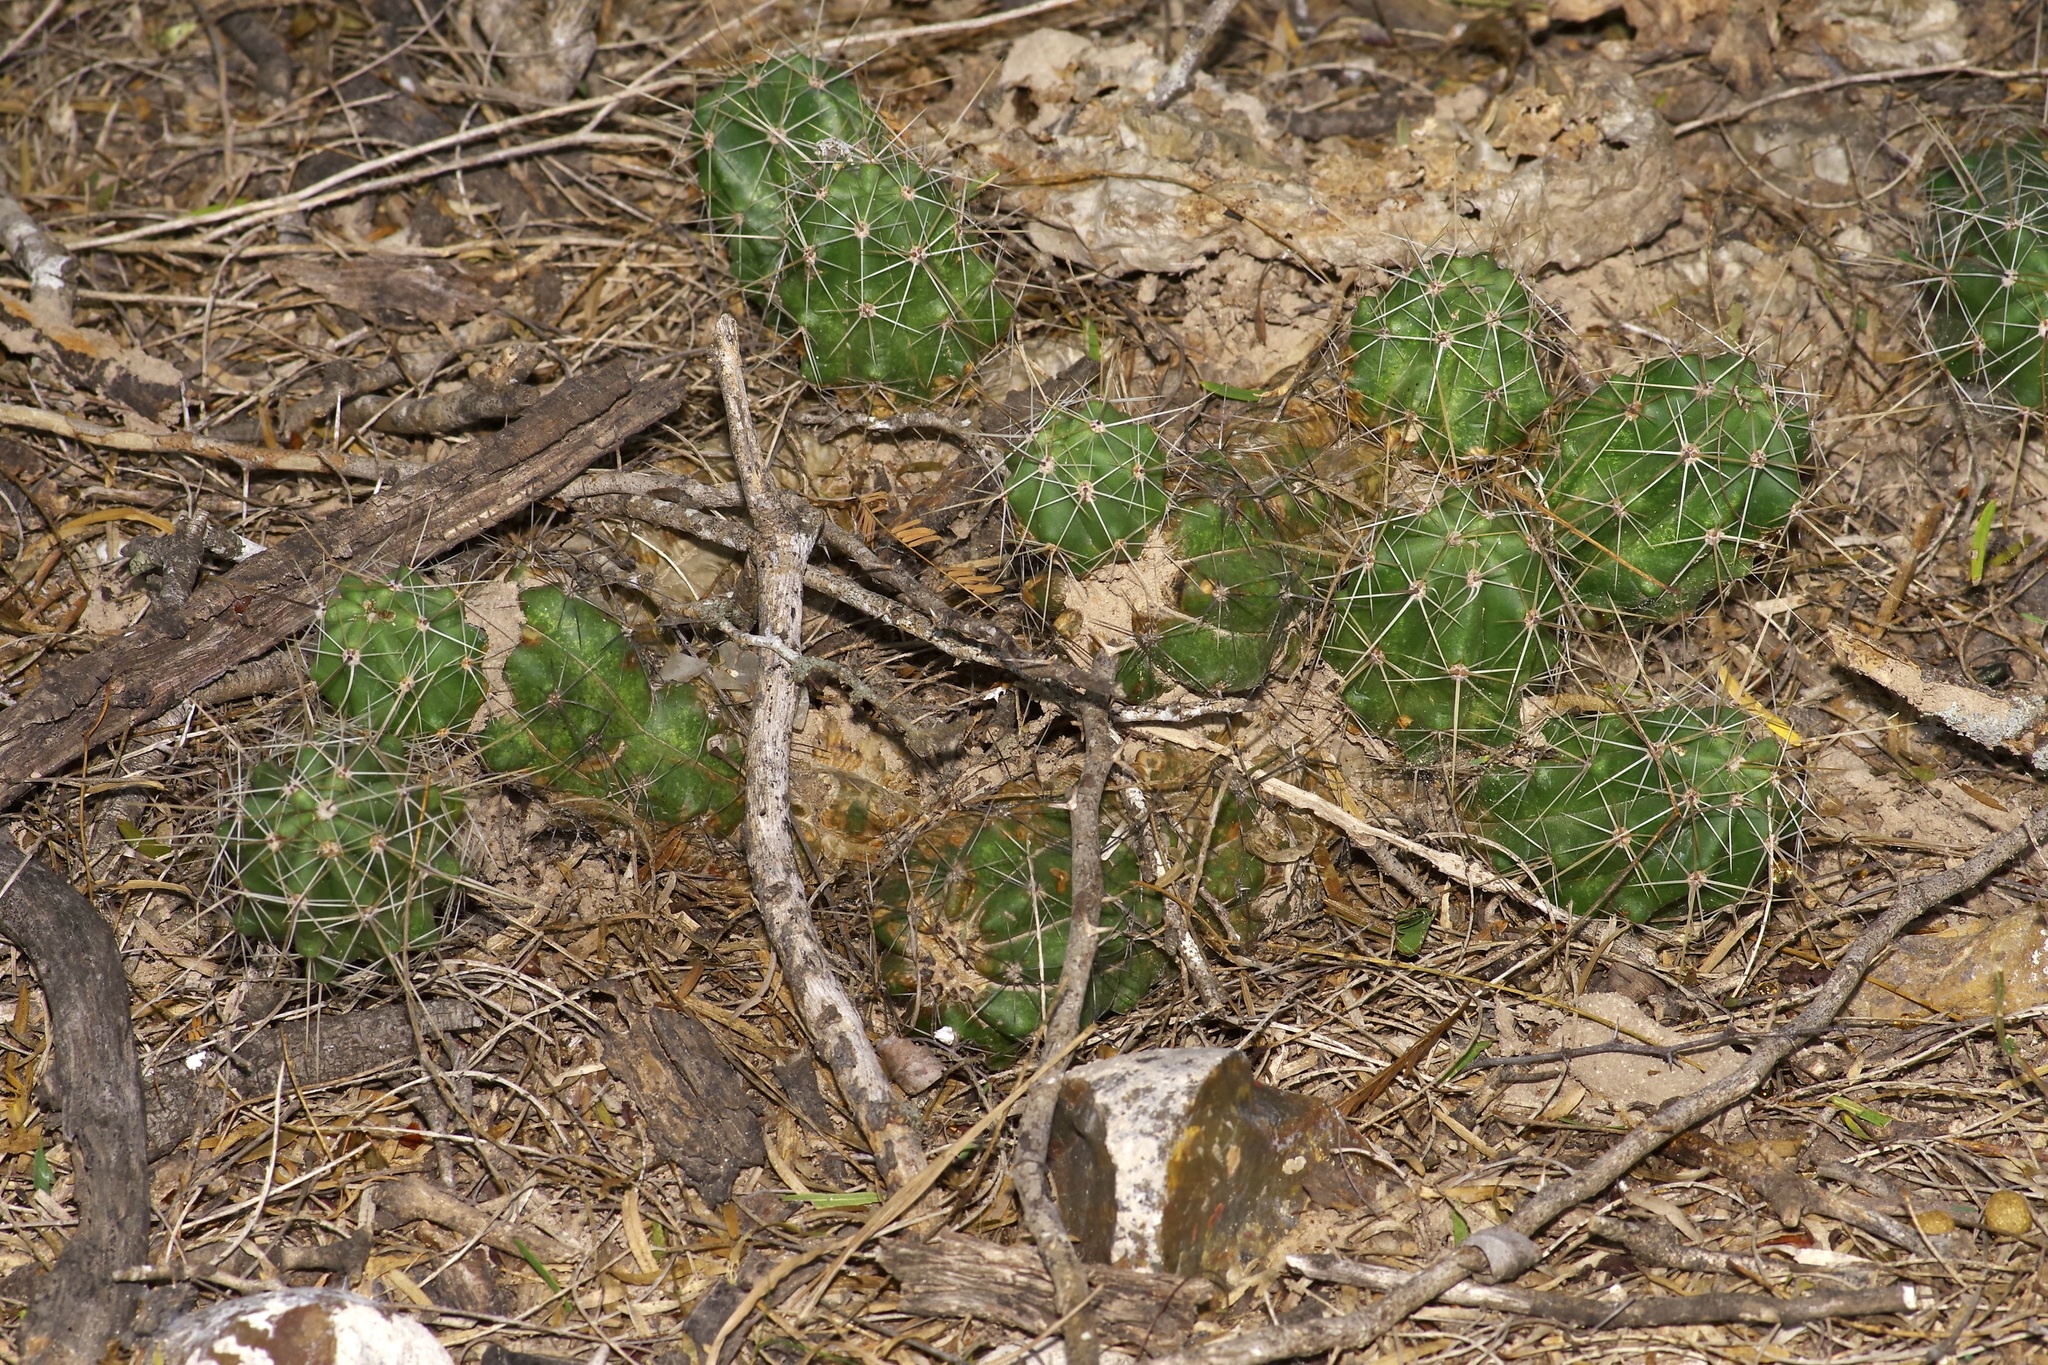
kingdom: Plantae
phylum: Tracheophyta
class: Magnoliopsida
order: Caryophyllales
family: Cactaceae
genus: Echinocereus
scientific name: Echinocereus enneacanthus
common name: Pitaya
